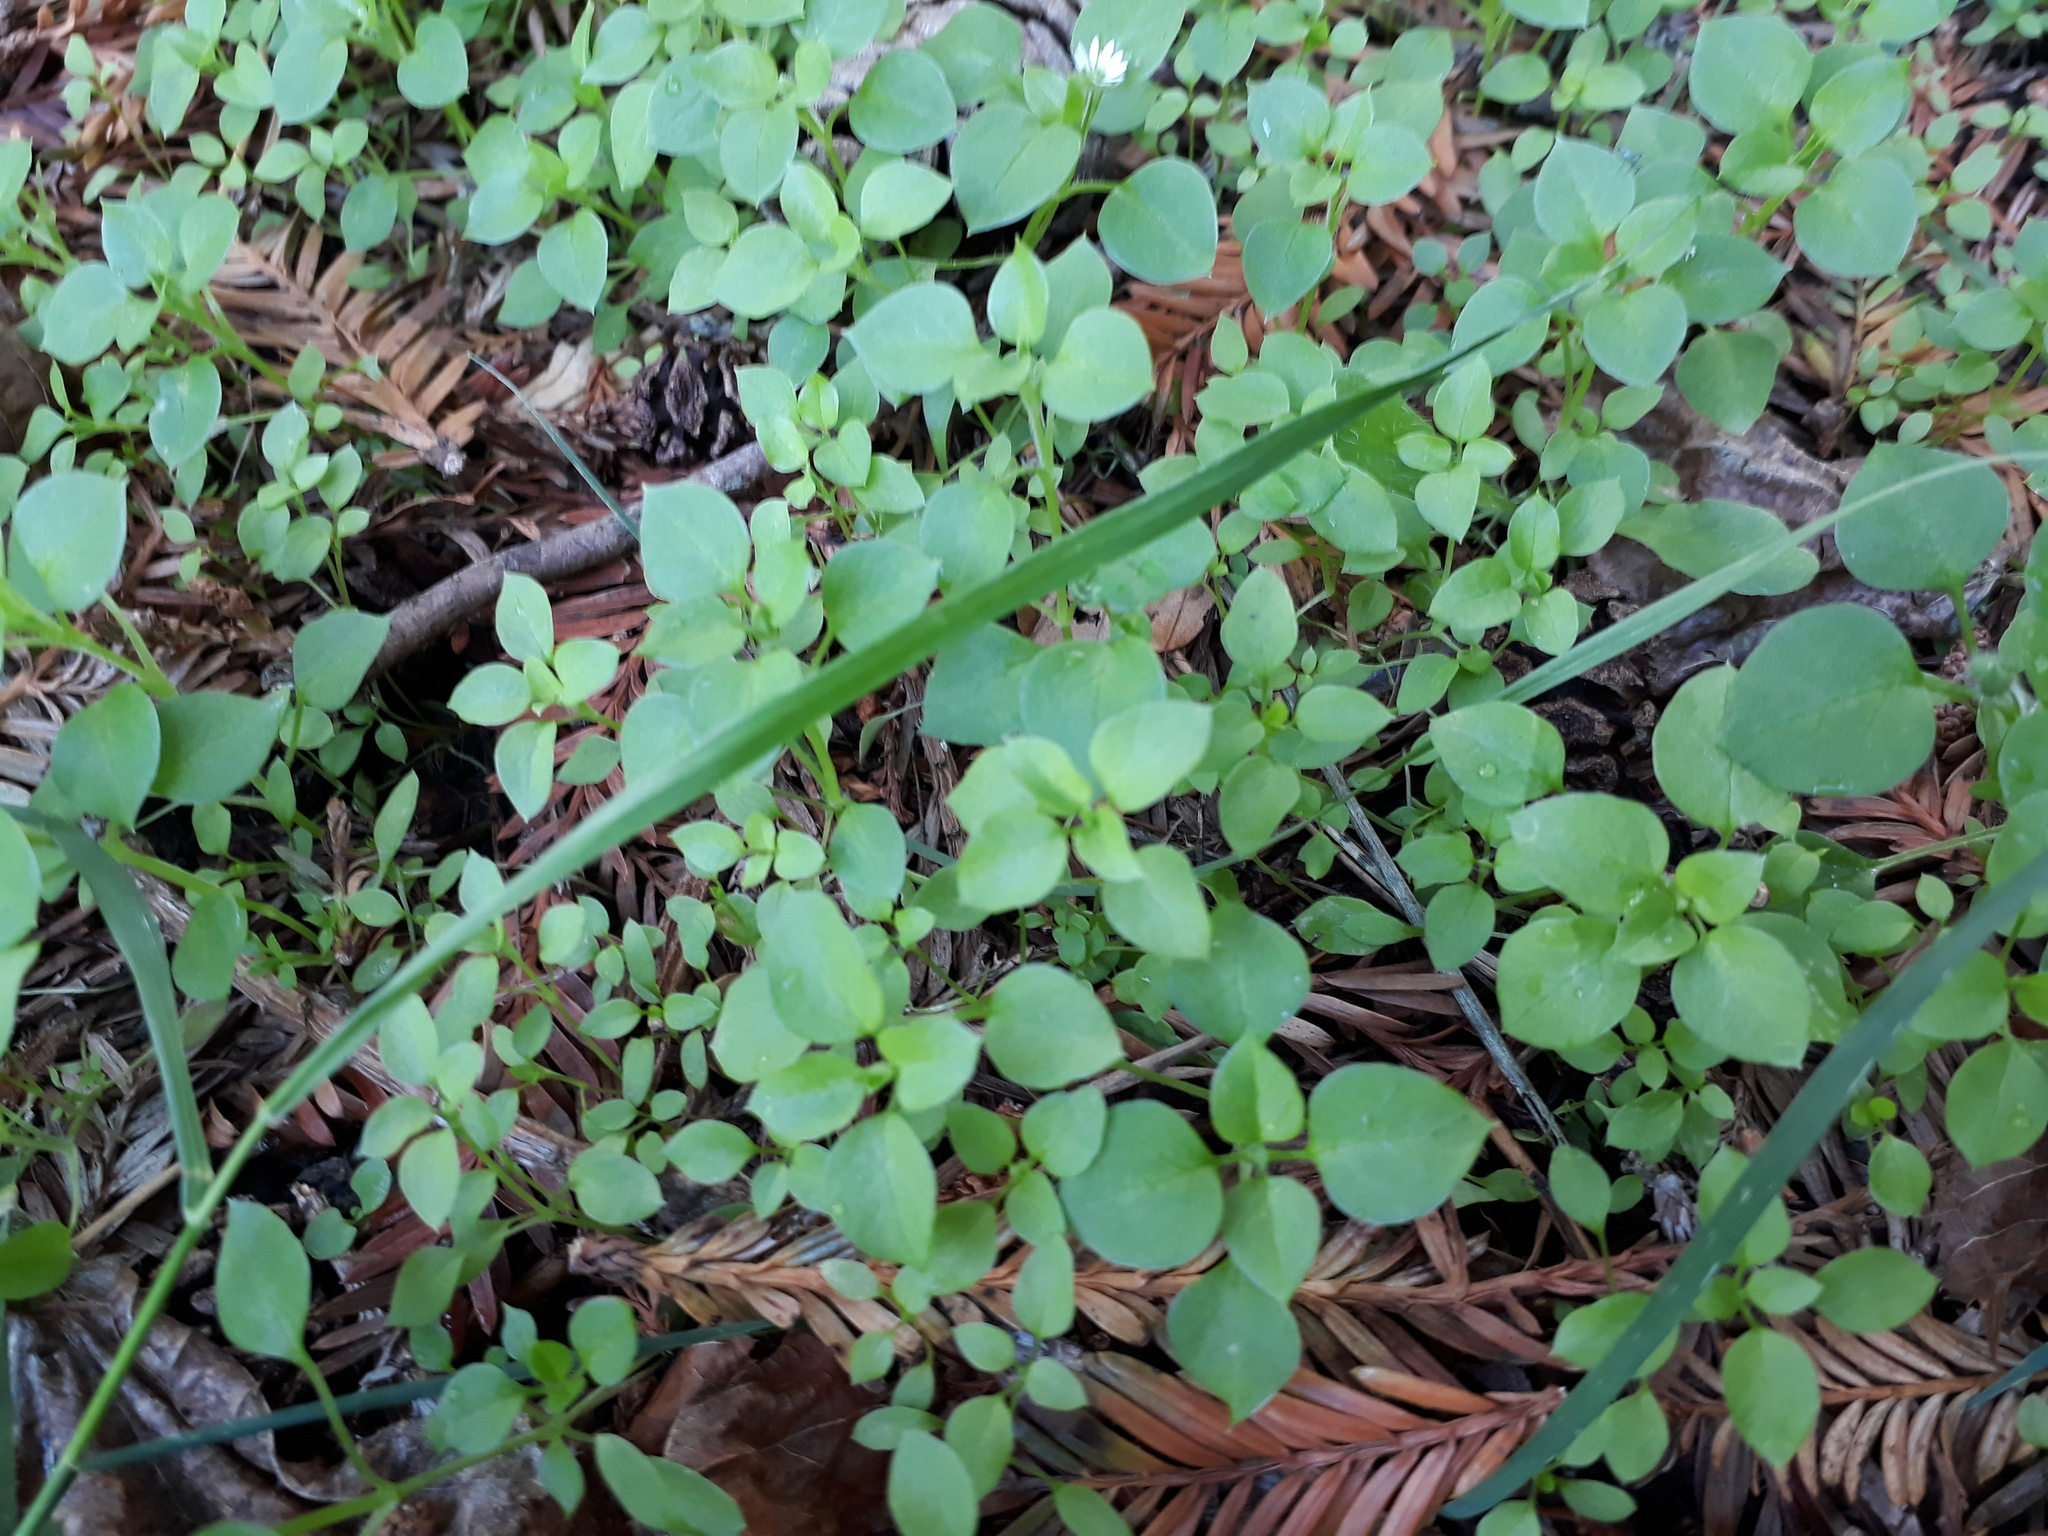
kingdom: Plantae
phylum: Tracheophyta
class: Magnoliopsida
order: Caryophyllales
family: Caryophyllaceae
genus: Stellaria
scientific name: Stellaria media
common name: Common chickweed
